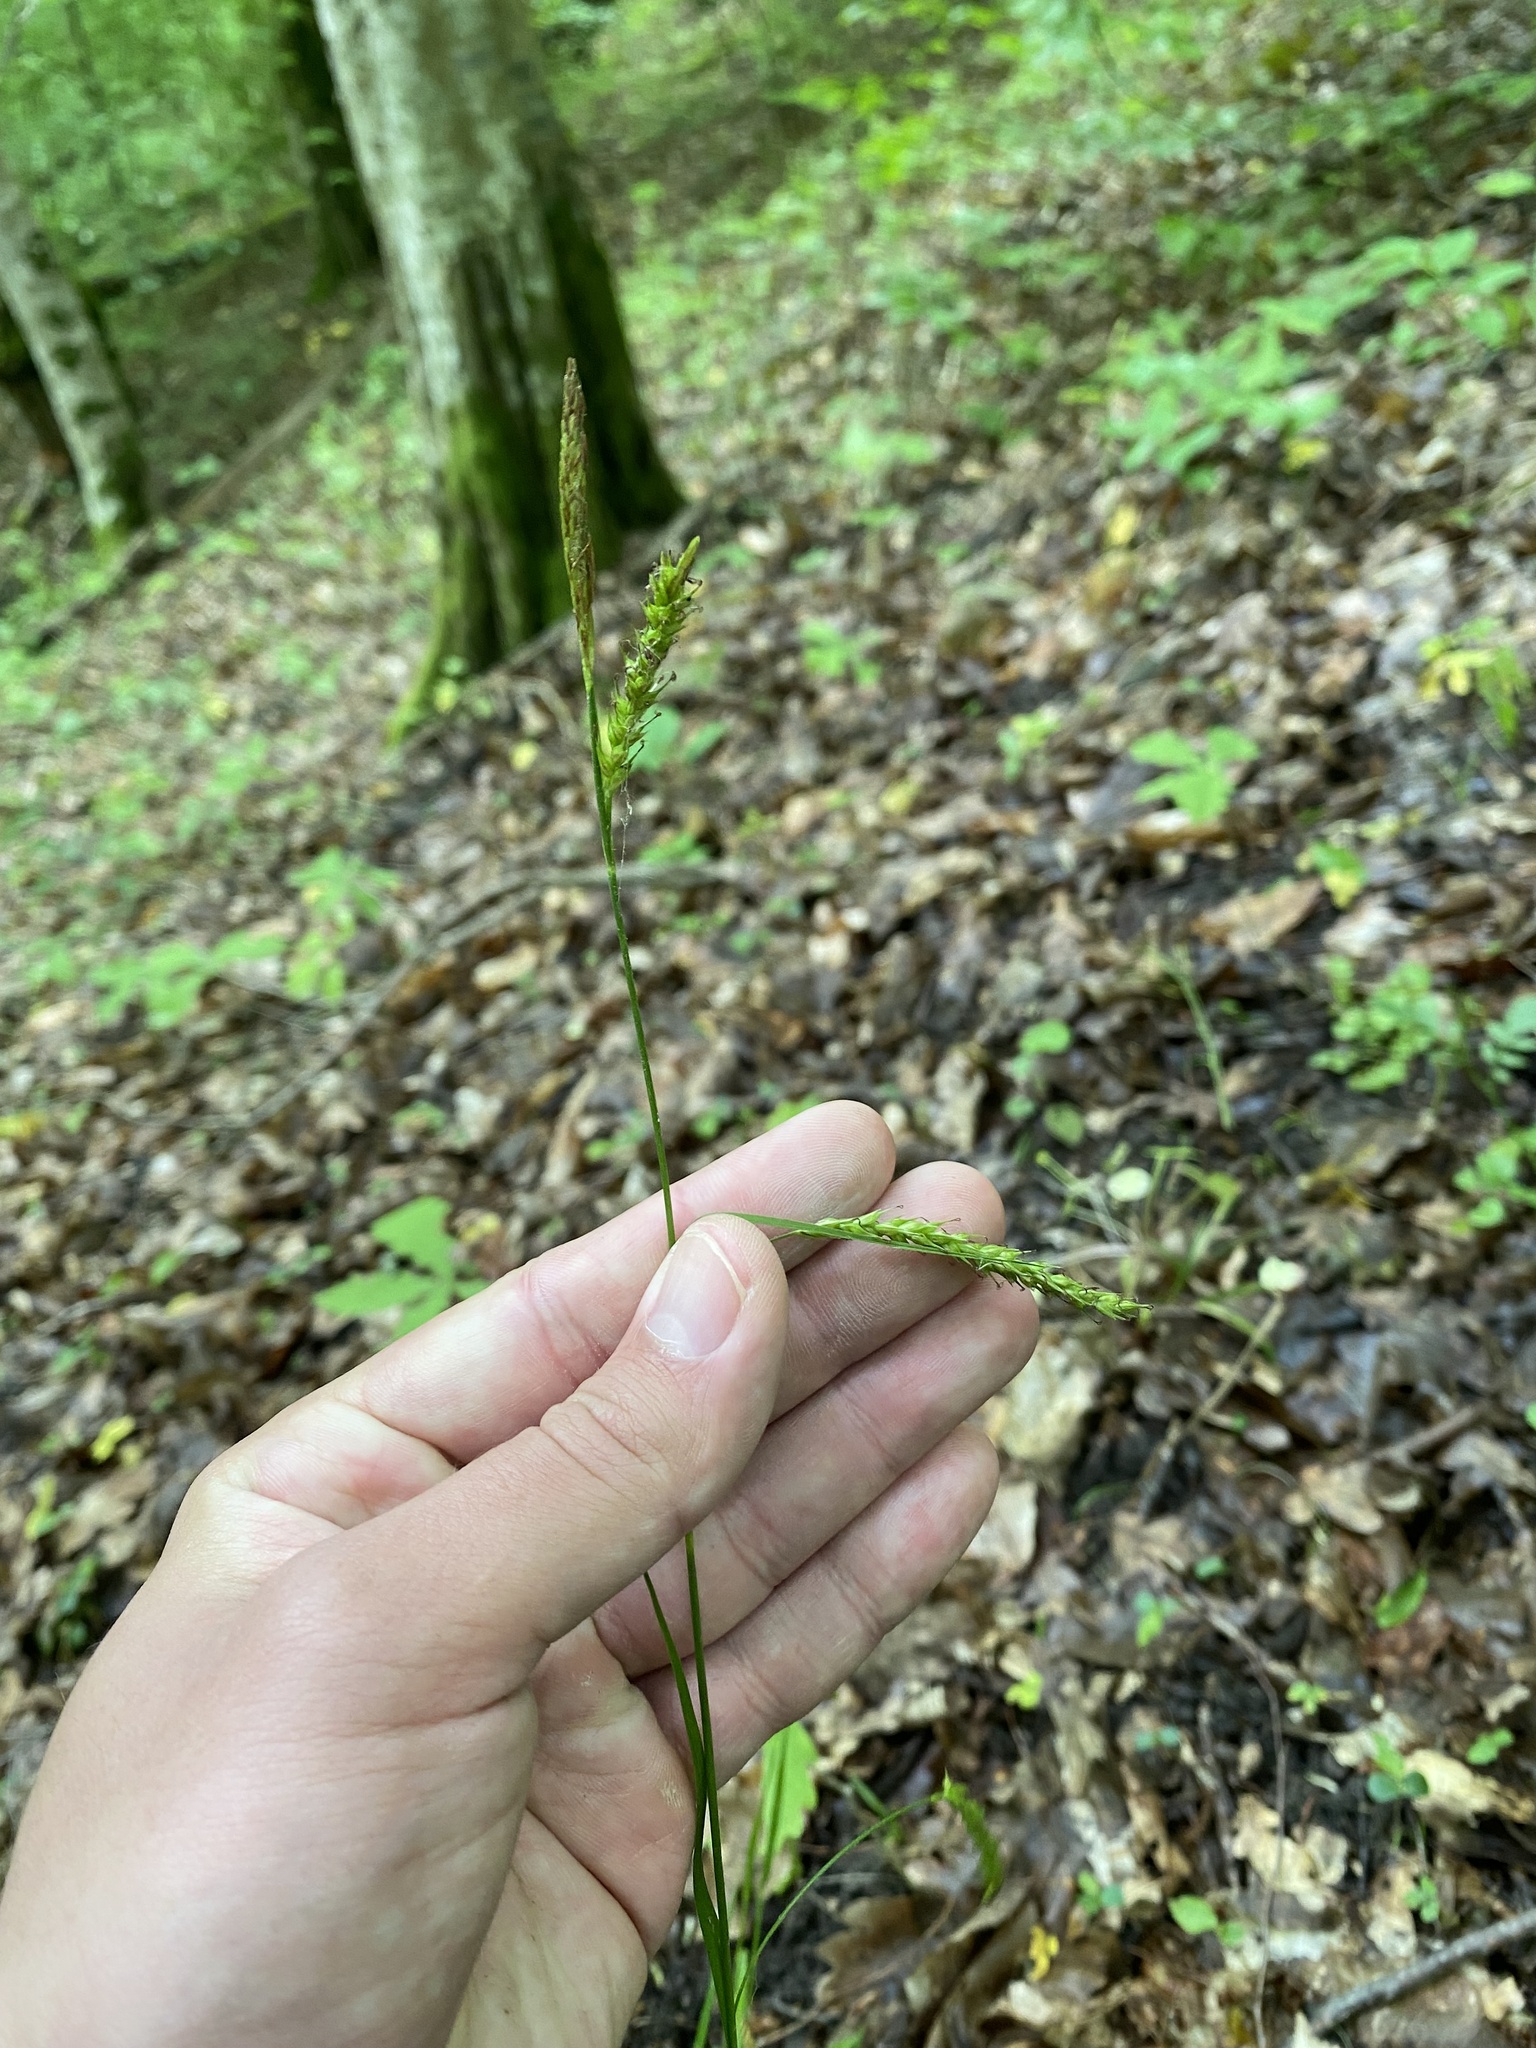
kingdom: Plantae
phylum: Tracheophyta
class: Liliopsida
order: Poales
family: Cyperaceae
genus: Carex
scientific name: Carex sylvatica
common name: Wood-sedge
